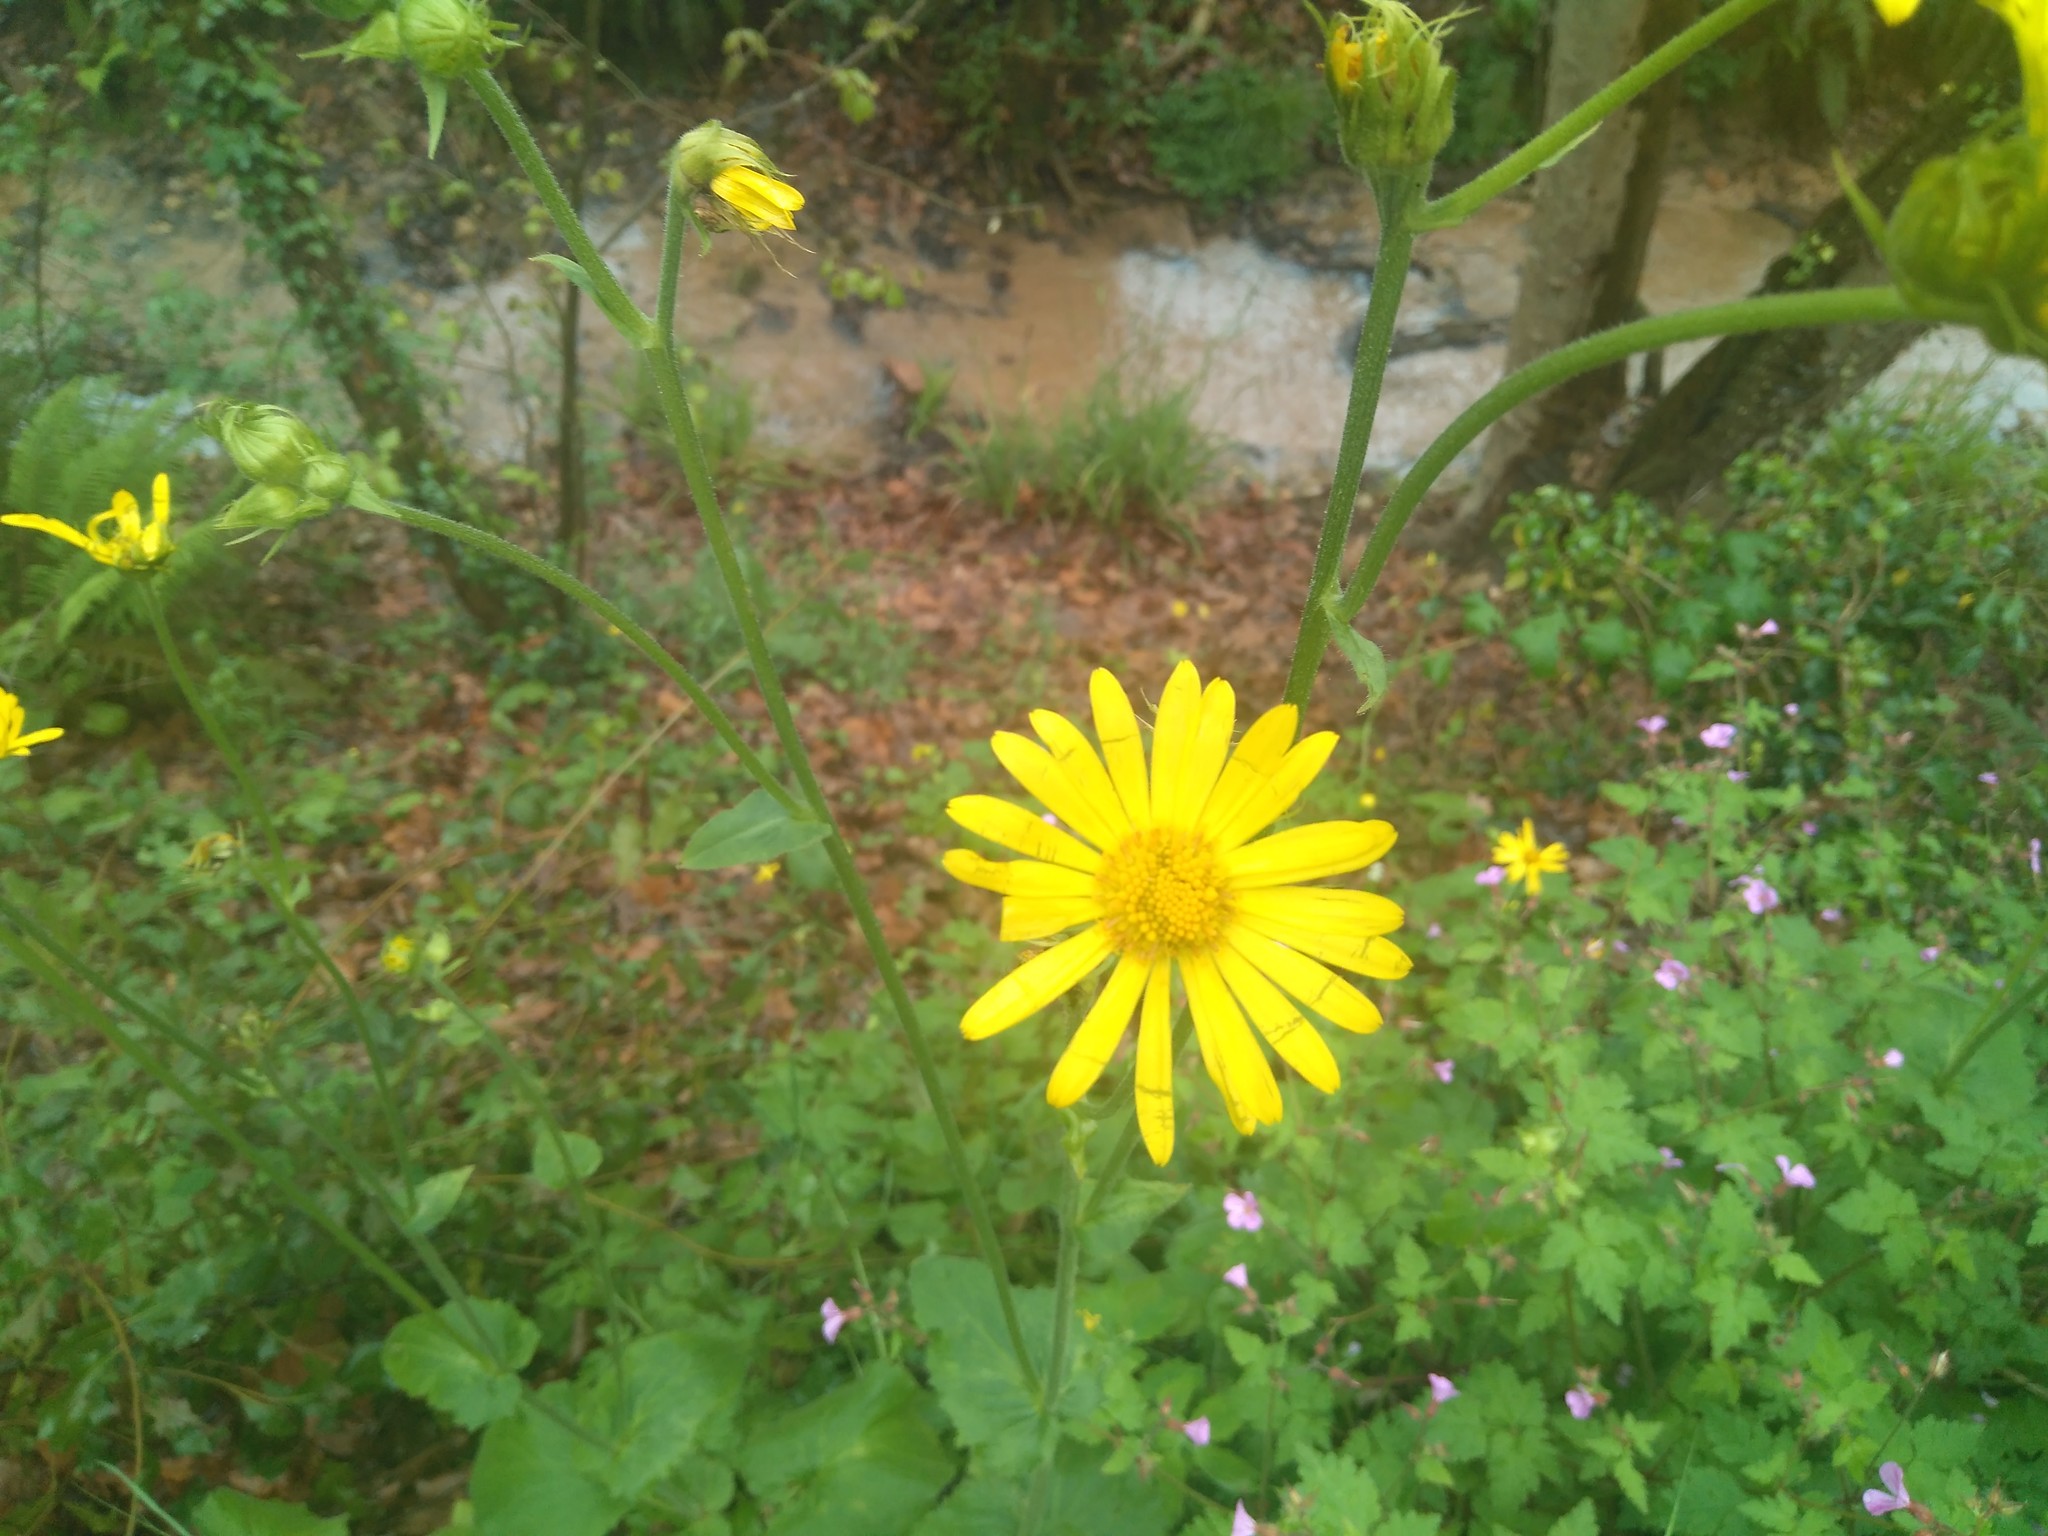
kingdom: Plantae
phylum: Tracheophyta
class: Magnoliopsida
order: Asterales
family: Asteraceae
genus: Doronicum
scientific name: Doronicum pardalianches
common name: Leopard's-bane
